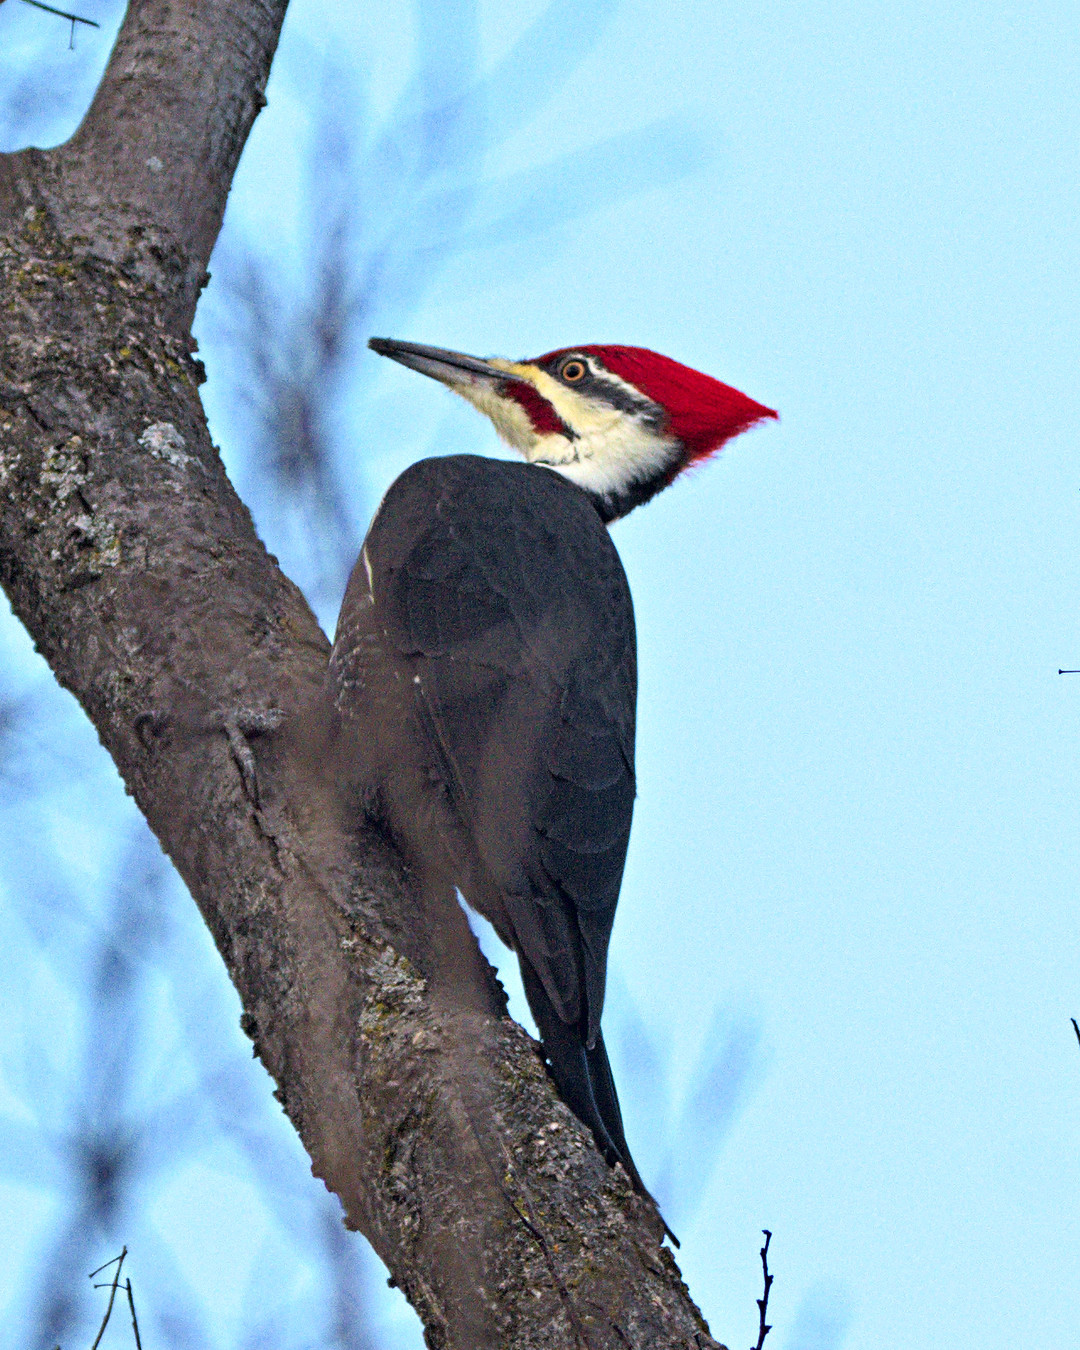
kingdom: Animalia
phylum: Chordata
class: Aves
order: Piciformes
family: Picidae
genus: Dryocopus
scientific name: Dryocopus pileatus
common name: Pileated woodpecker
